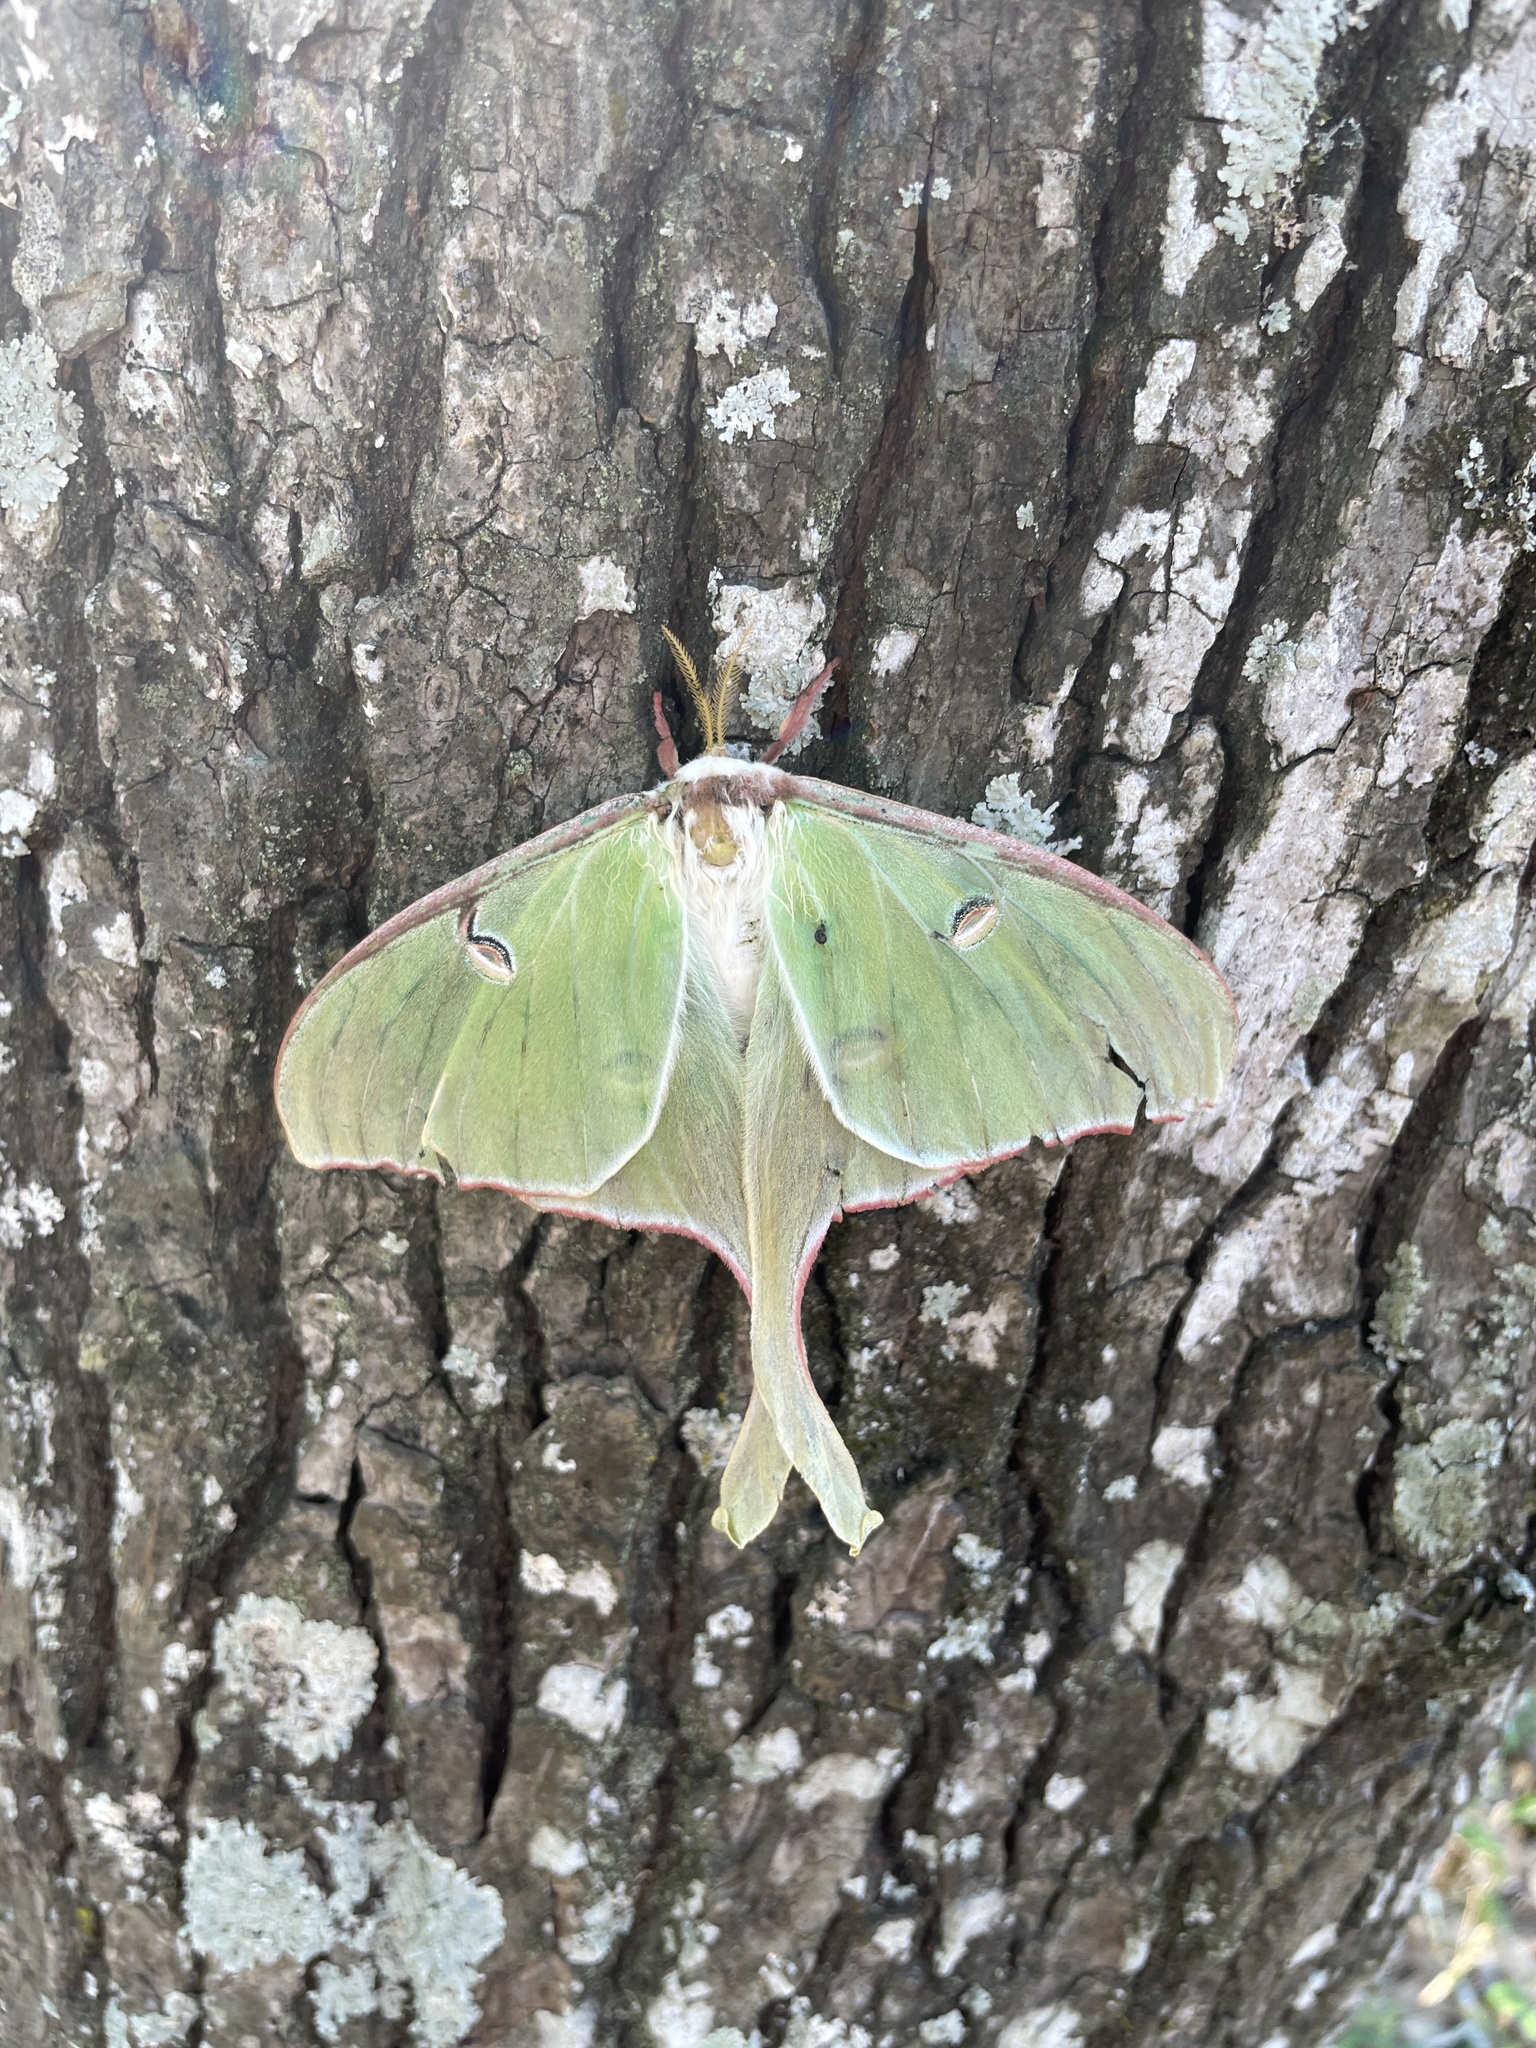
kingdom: Animalia
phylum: Arthropoda
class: Insecta
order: Lepidoptera
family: Saturniidae
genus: Actias
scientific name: Actias luna
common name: Luna moth
